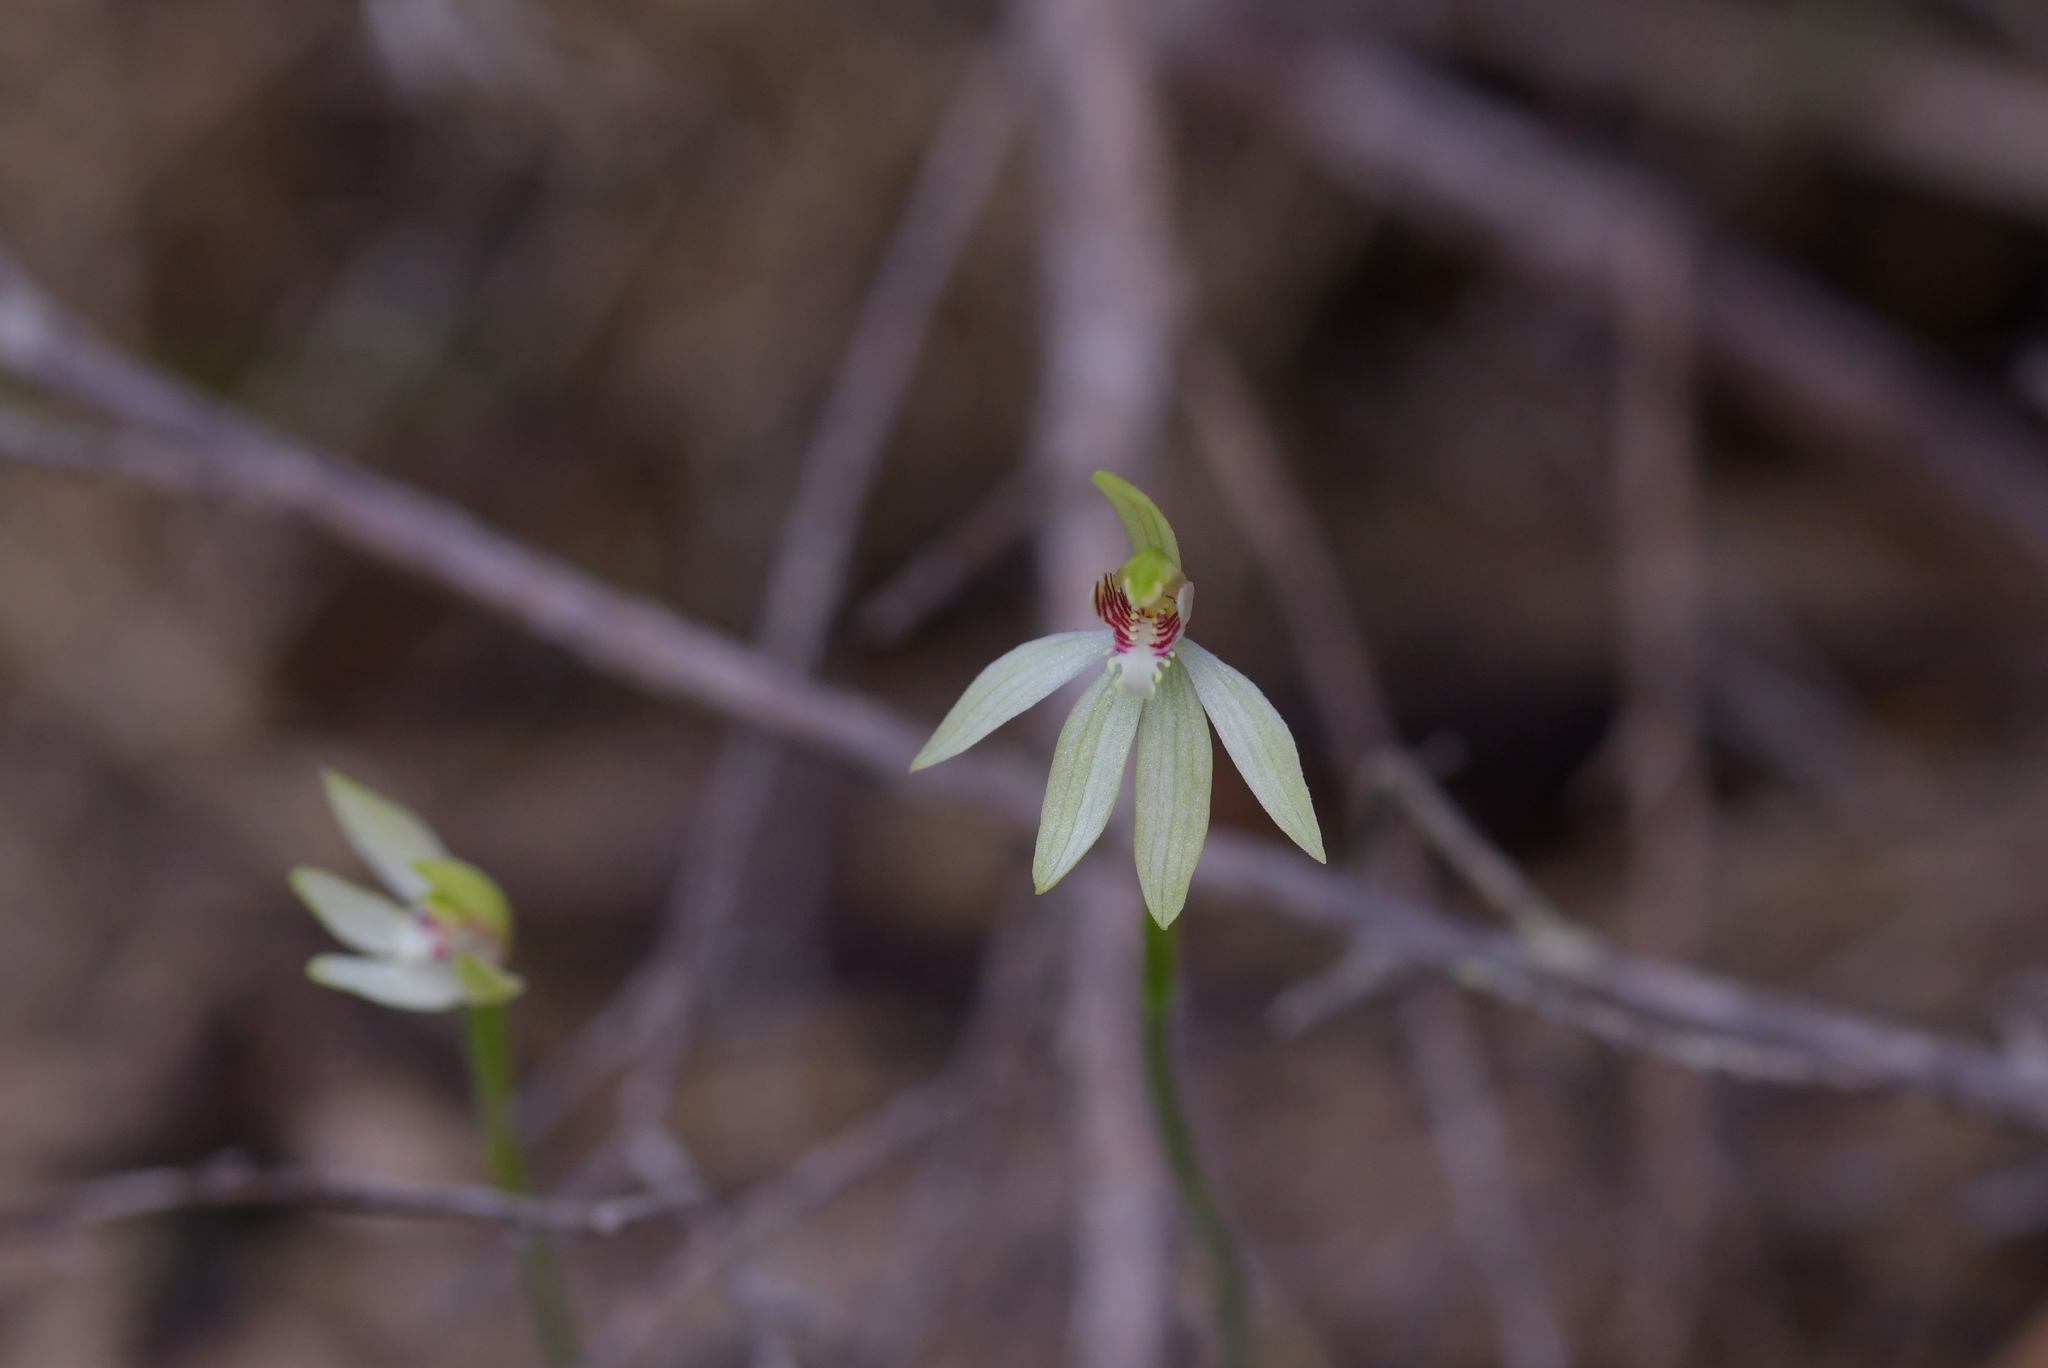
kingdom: Plantae
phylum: Tracheophyta
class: Liliopsida
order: Asparagales
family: Orchidaceae
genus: Caladenia
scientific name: Caladenia chlorostyla
